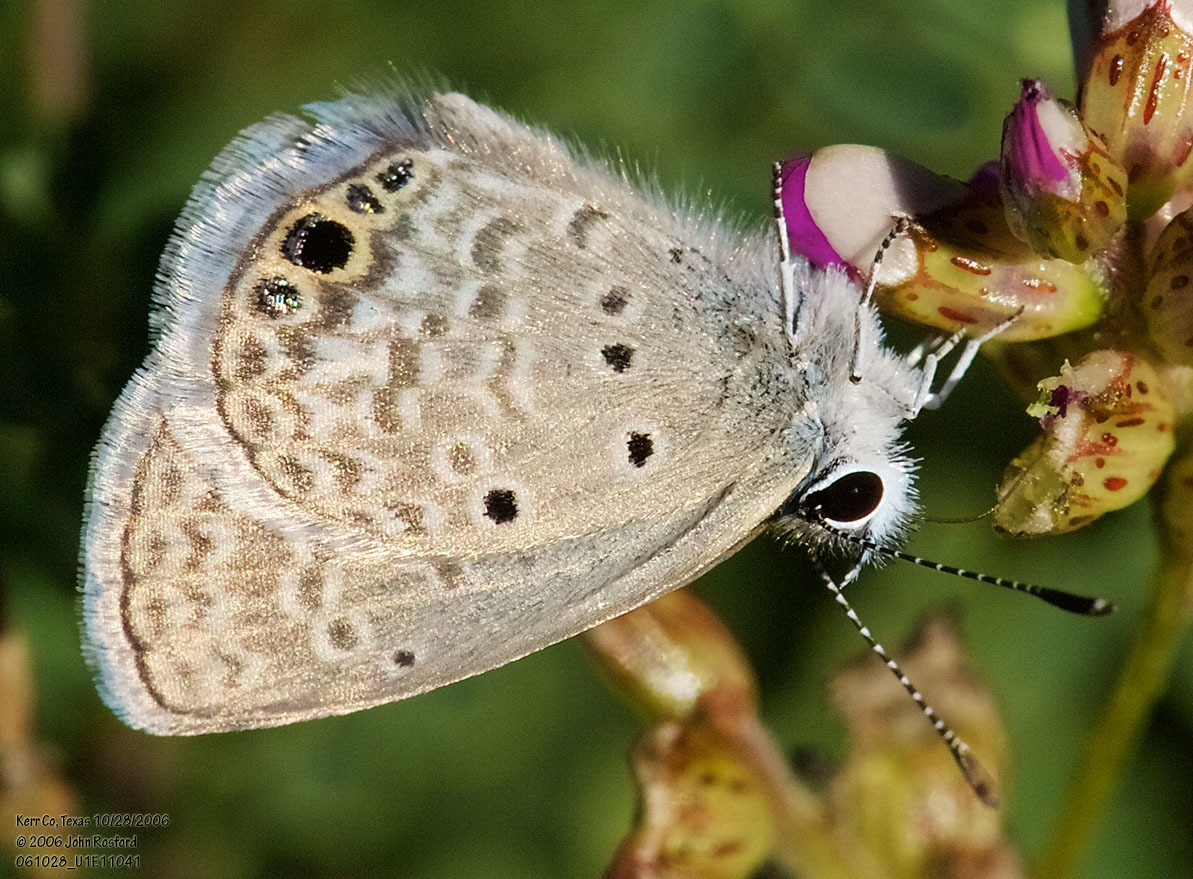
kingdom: Animalia
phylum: Arthropoda
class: Insecta
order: Lepidoptera
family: Lycaenidae
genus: Hemiargus
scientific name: Hemiargus ceraunus
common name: Ceraunus blue
